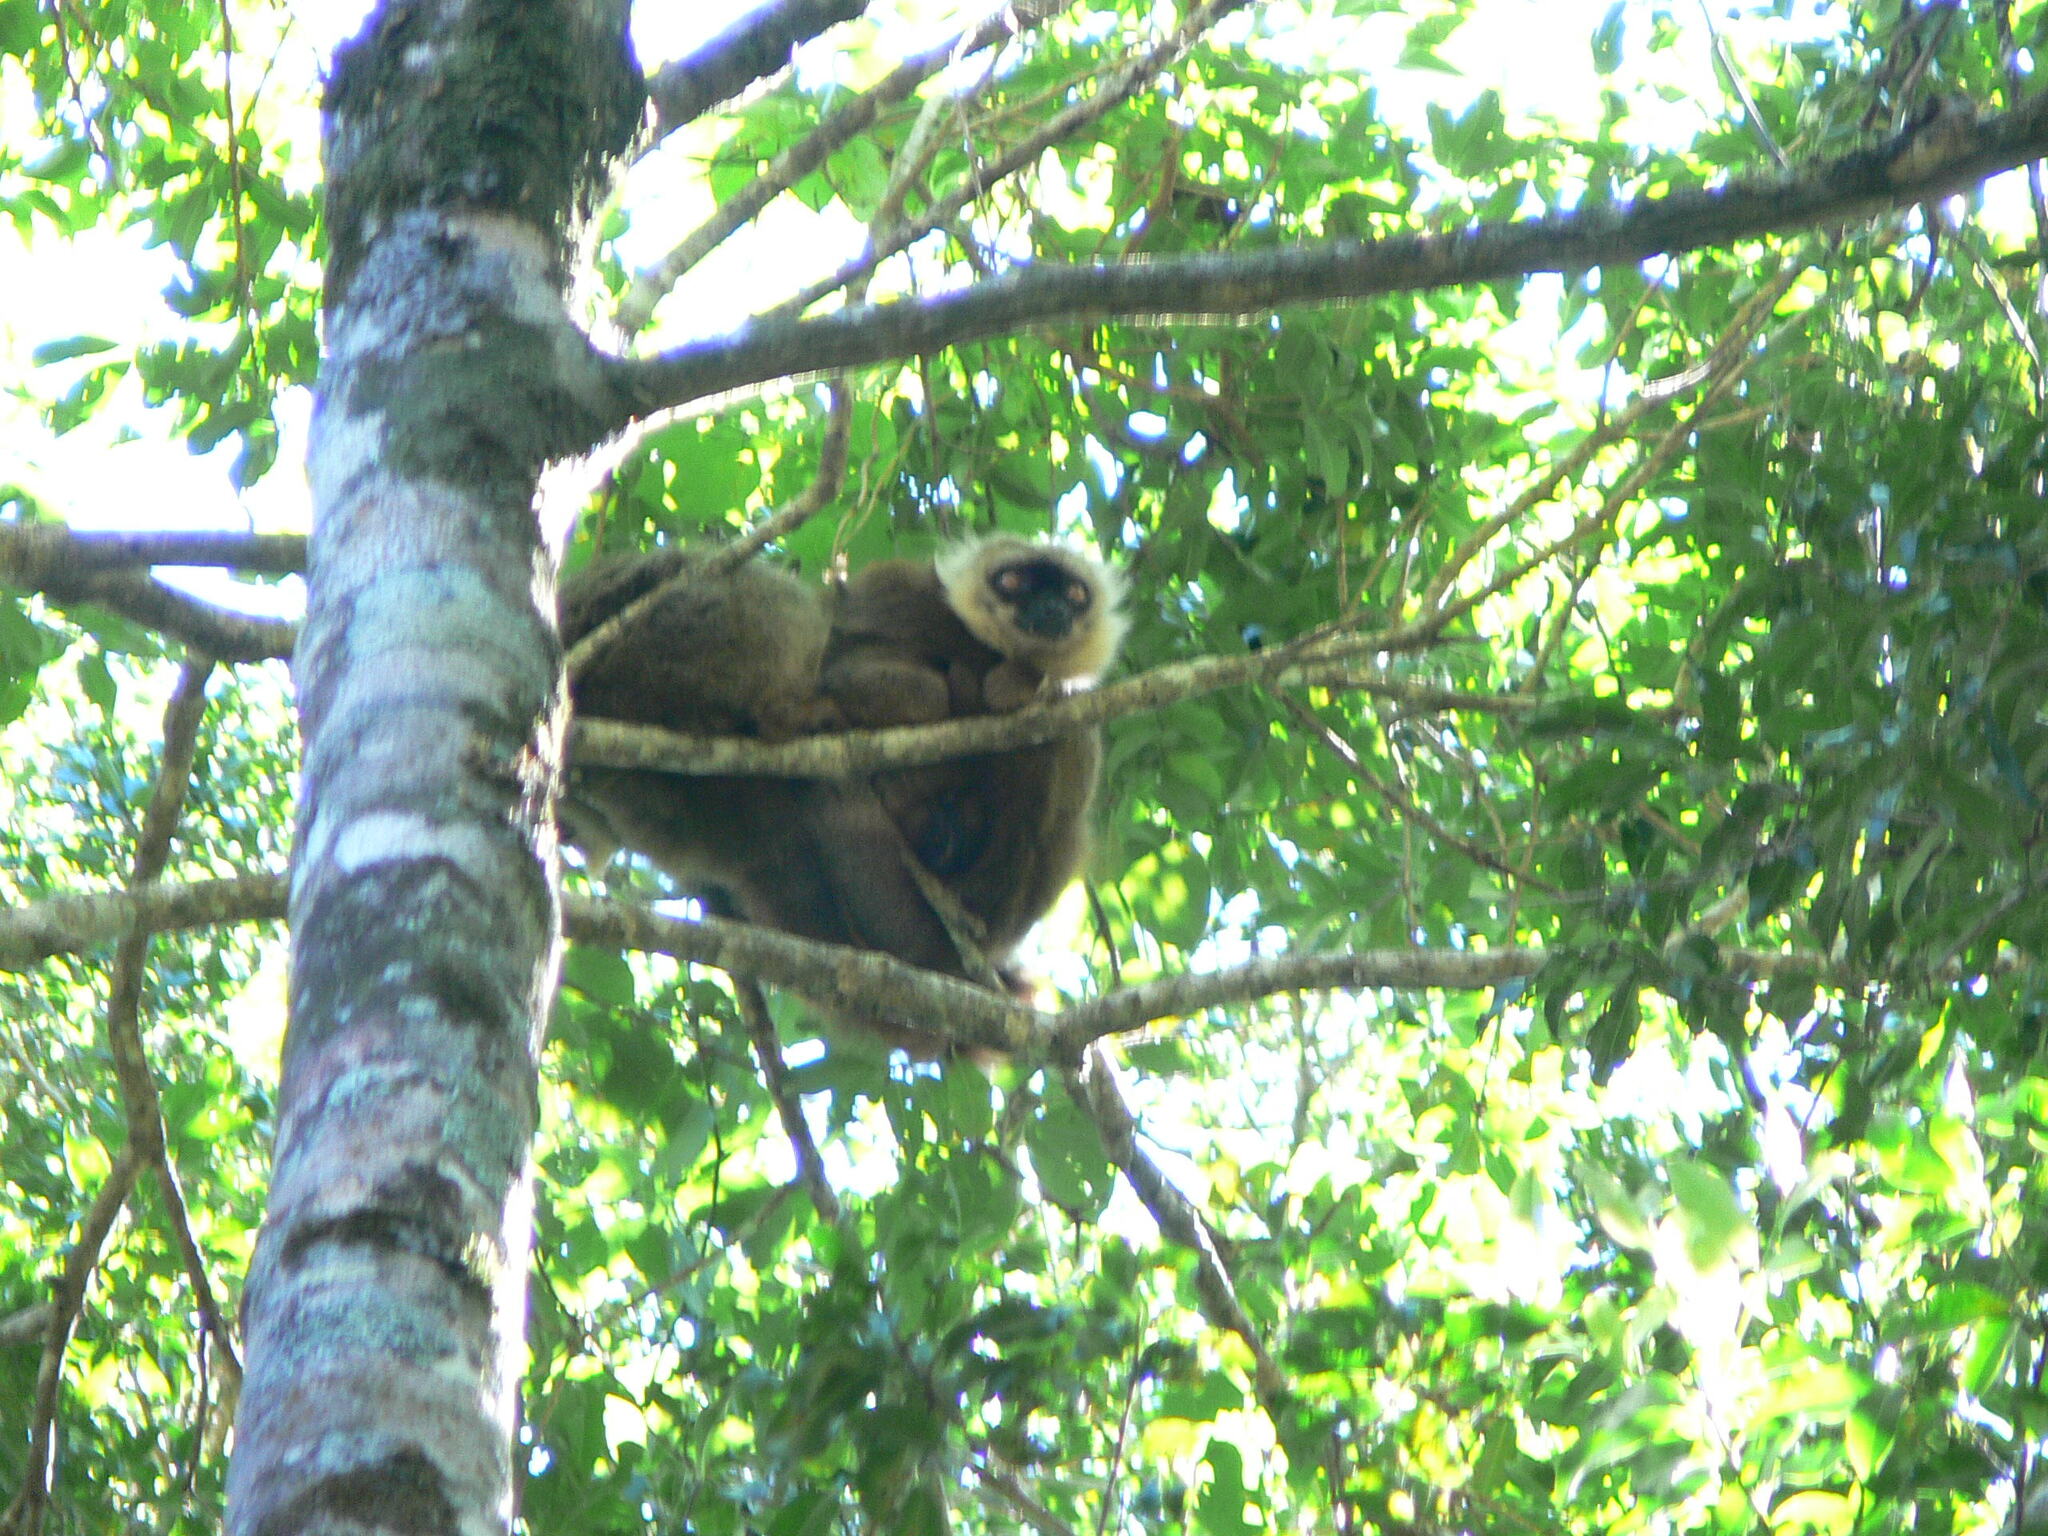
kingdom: Animalia
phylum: Chordata
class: Mammalia
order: Primates
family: Lemuridae
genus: Eulemur
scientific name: Eulemur sanfordi
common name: Sanford's brown lemur
